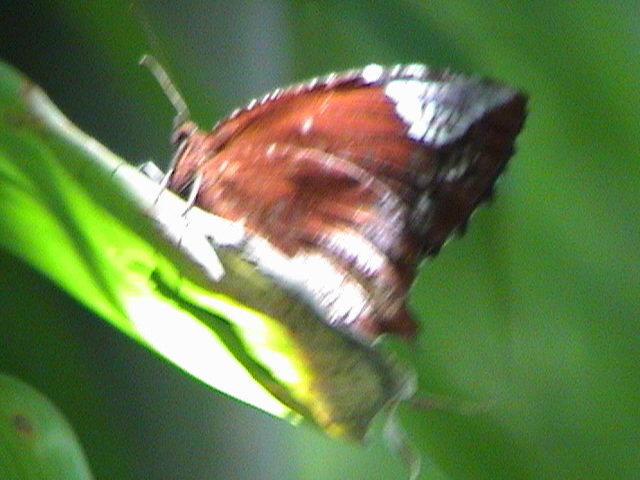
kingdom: Animalia
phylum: Arthropoda
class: Insecta
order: Lepidoptera
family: Nymphalidae
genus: Elymnias
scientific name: Elymnias caudata
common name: Tailed palmfly
